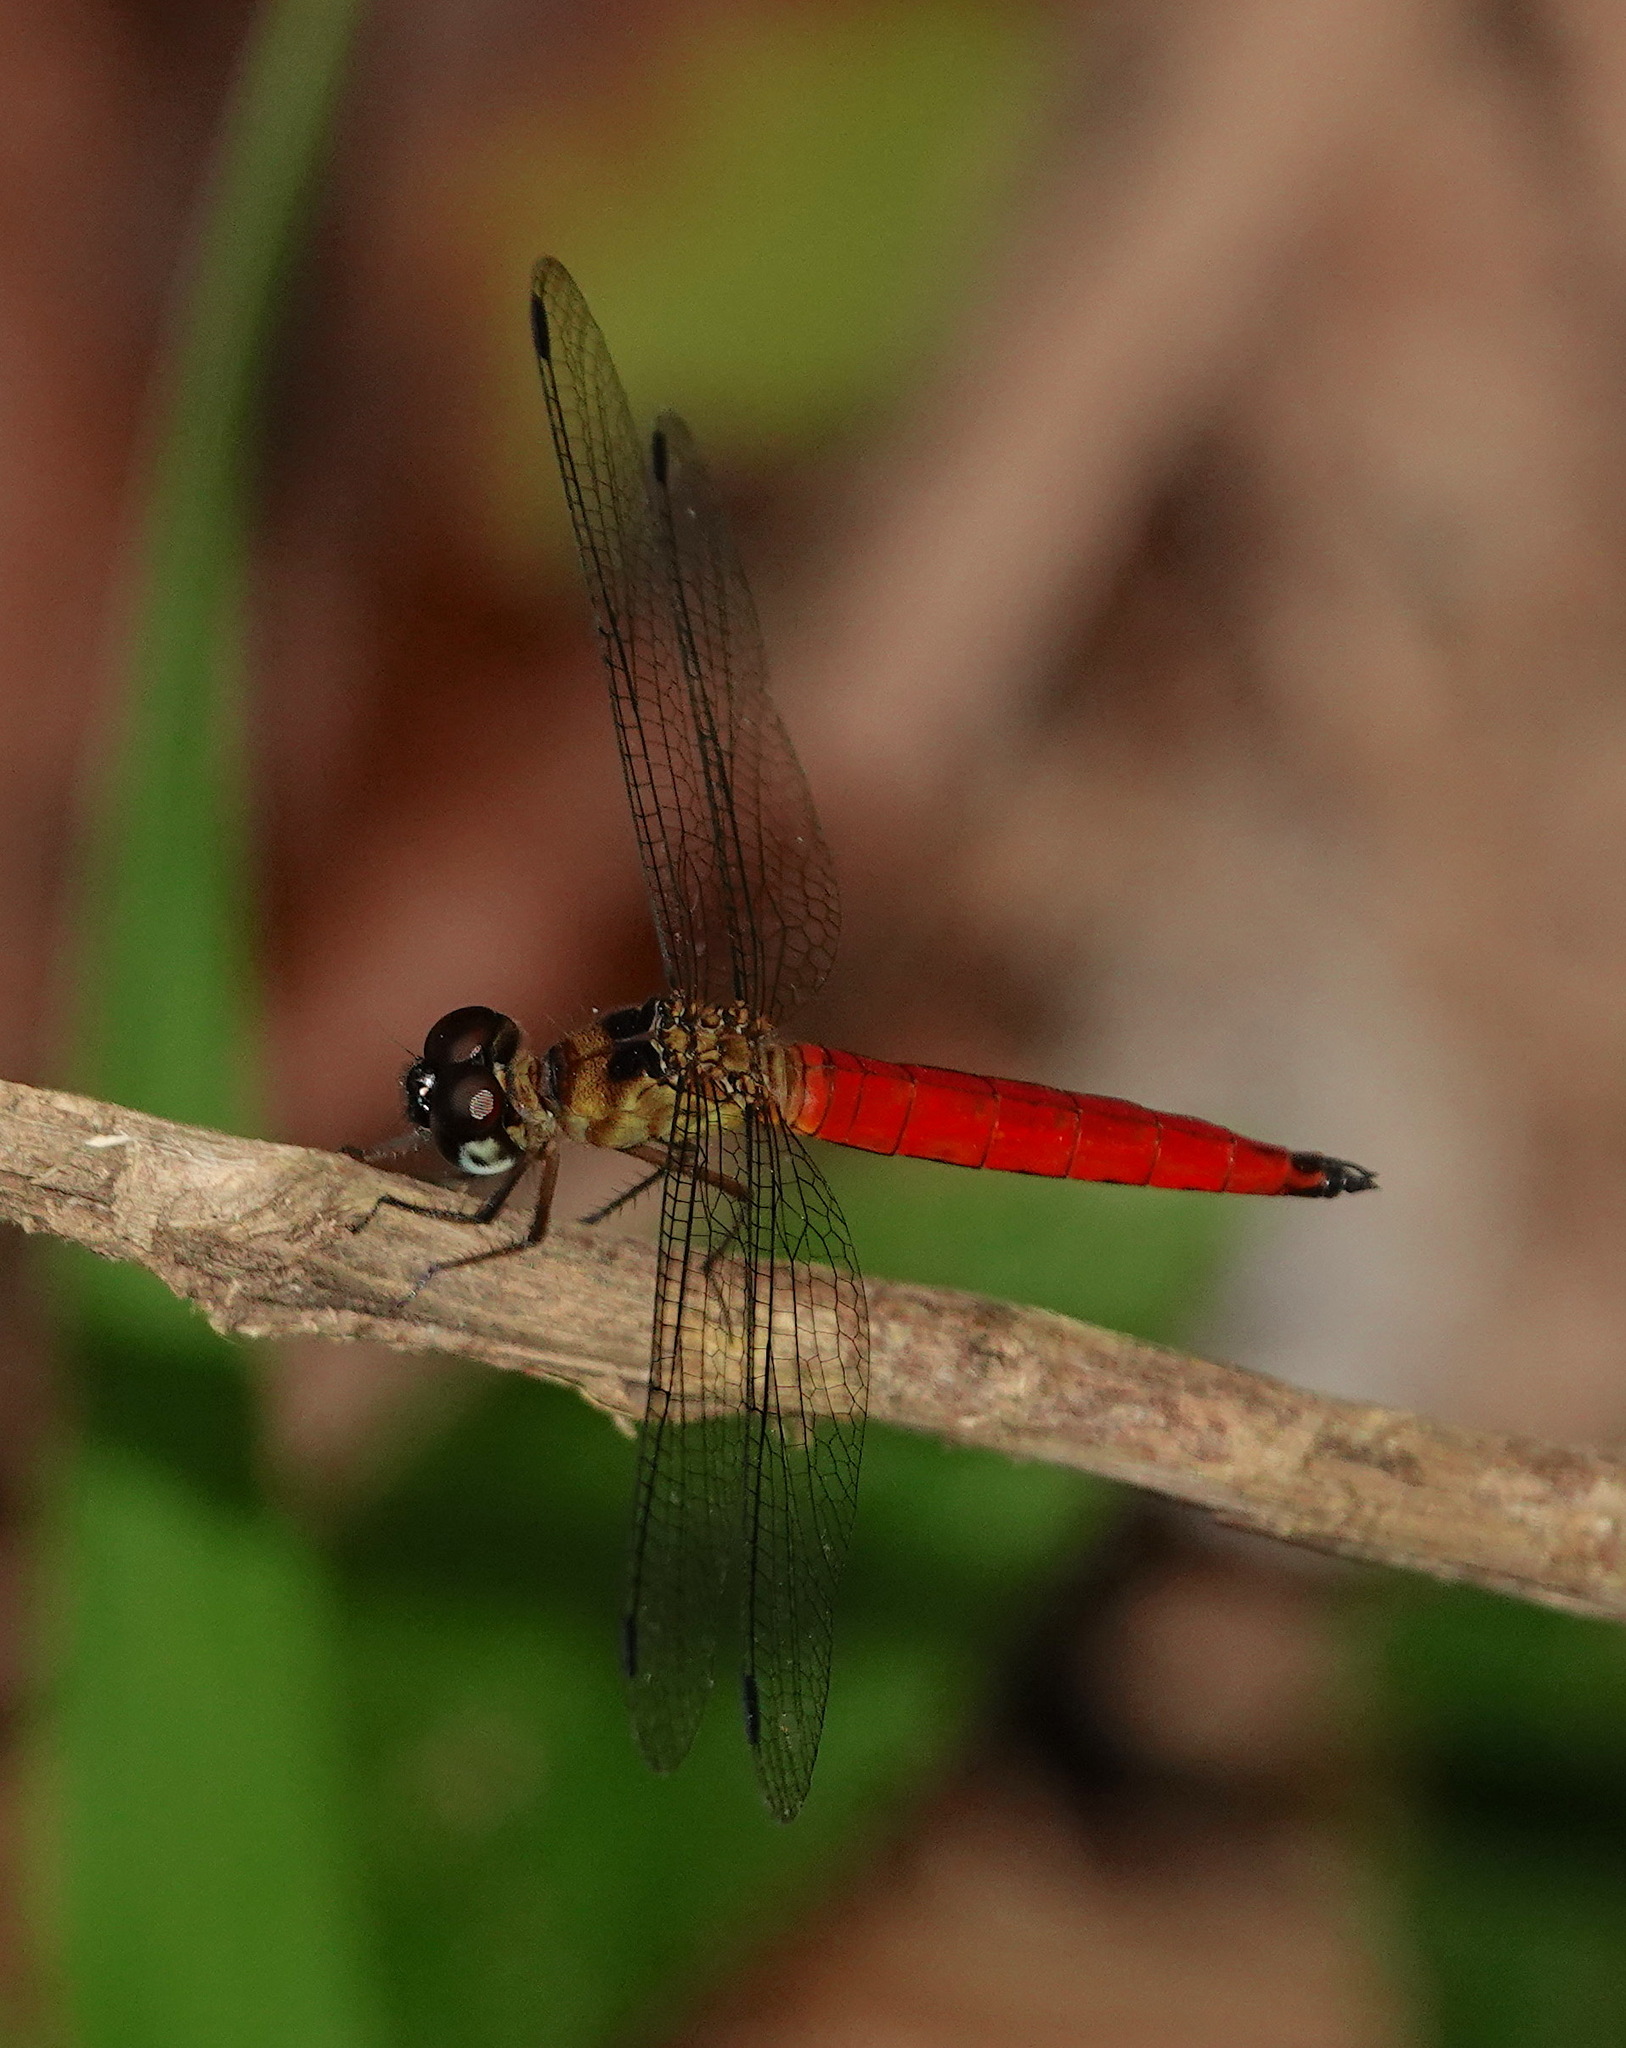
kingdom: Animalia
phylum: Arthropoda
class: Insecta
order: Odonata
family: Libellulidae
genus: Orchithemis
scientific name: Orchithemis pulcherrima
